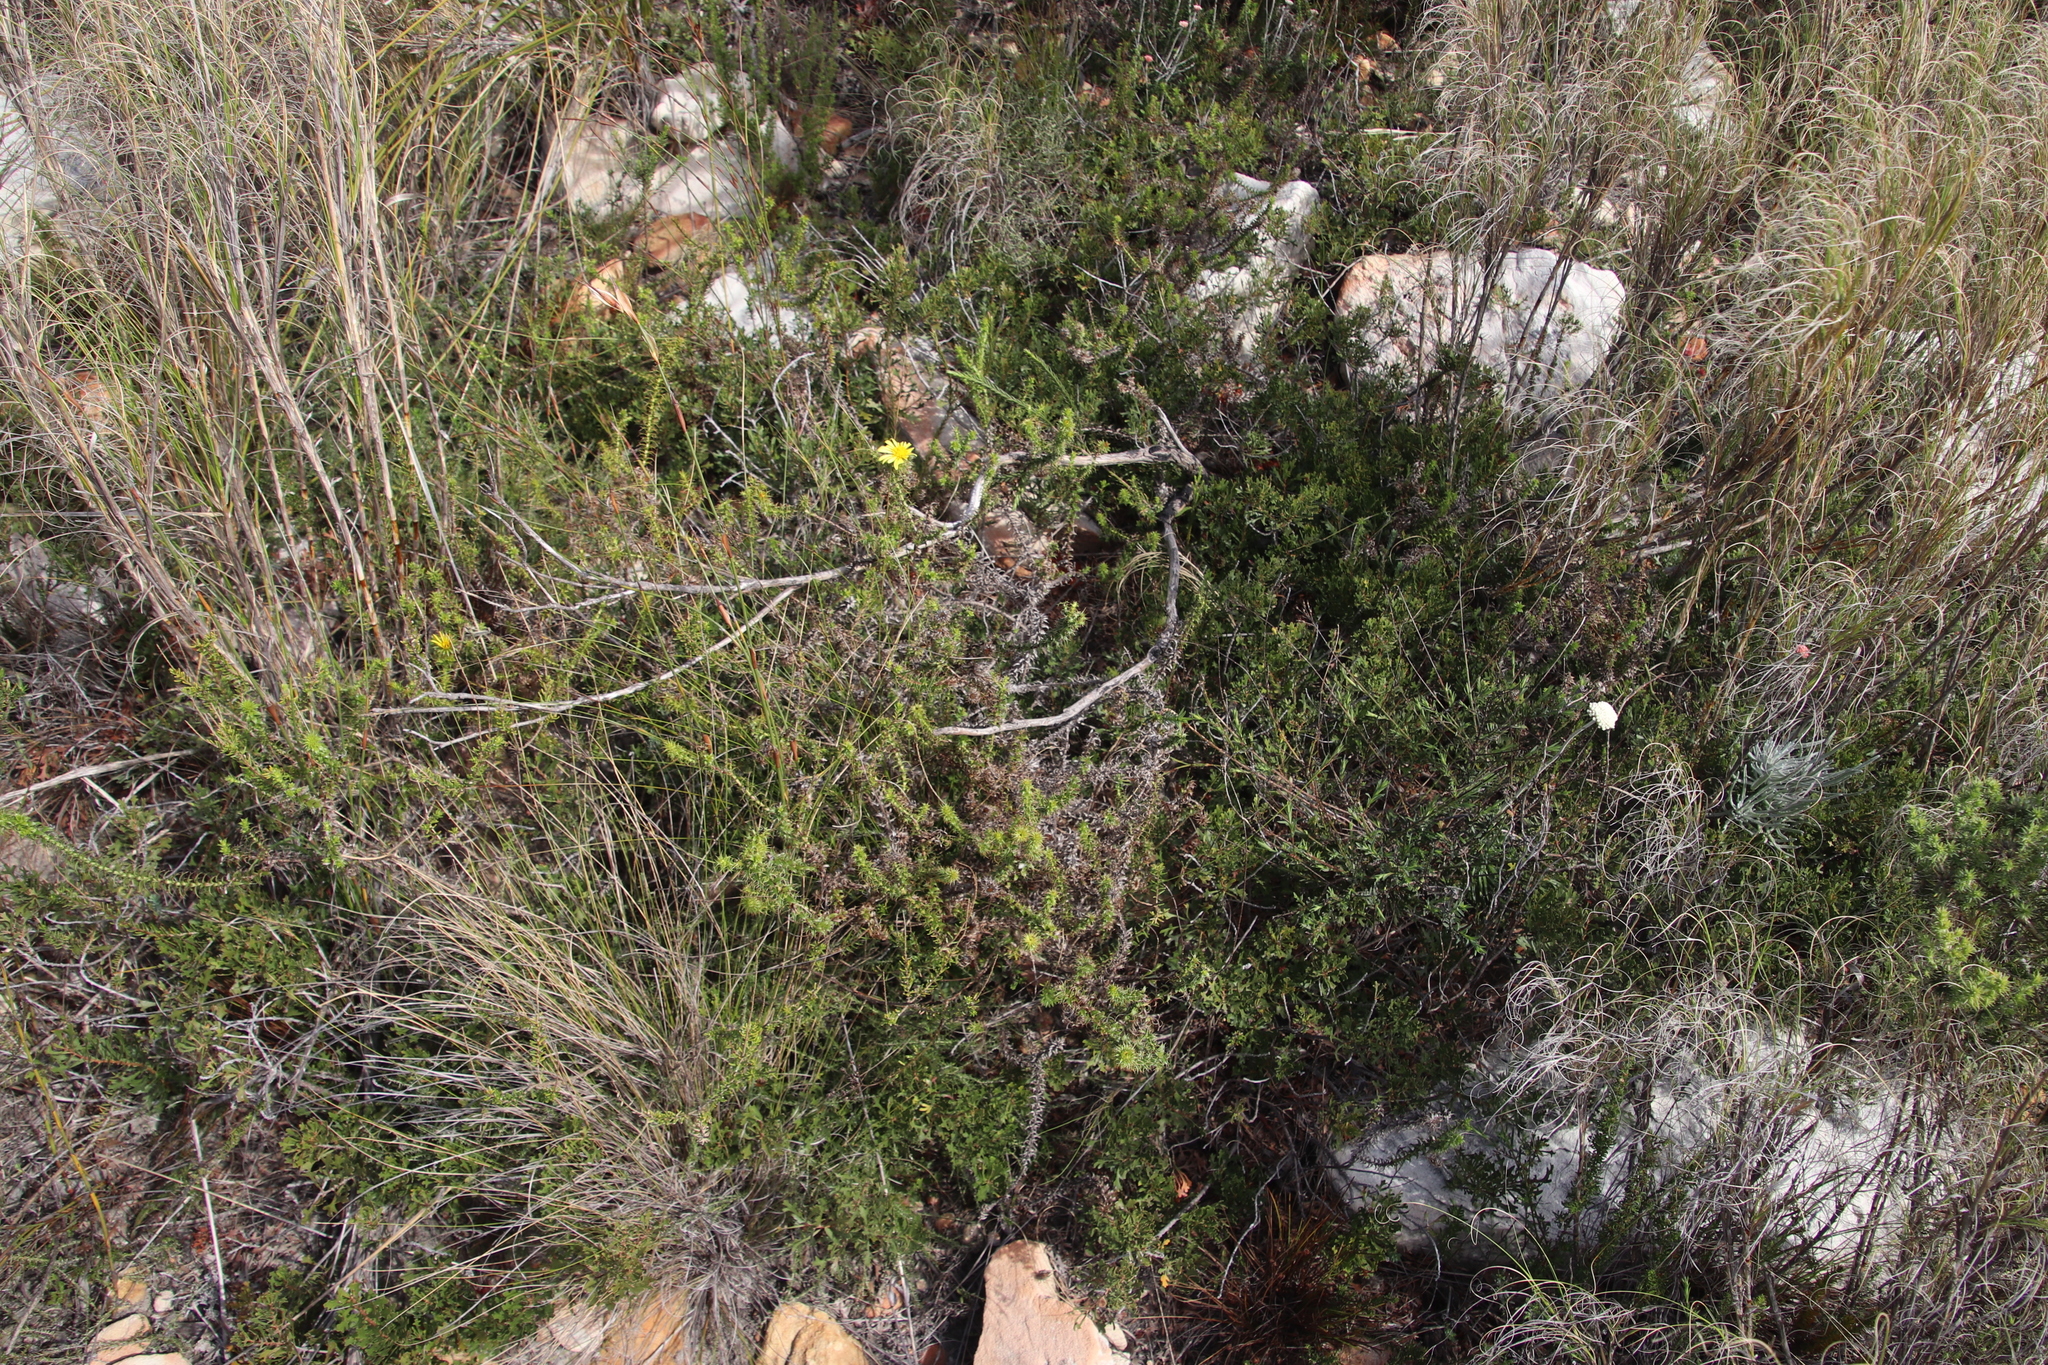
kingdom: Plantae
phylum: Tracheophyta
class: Magnoliopsida
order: Fagales
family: Myricaceae
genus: Morella
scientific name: Morella quercifolia
